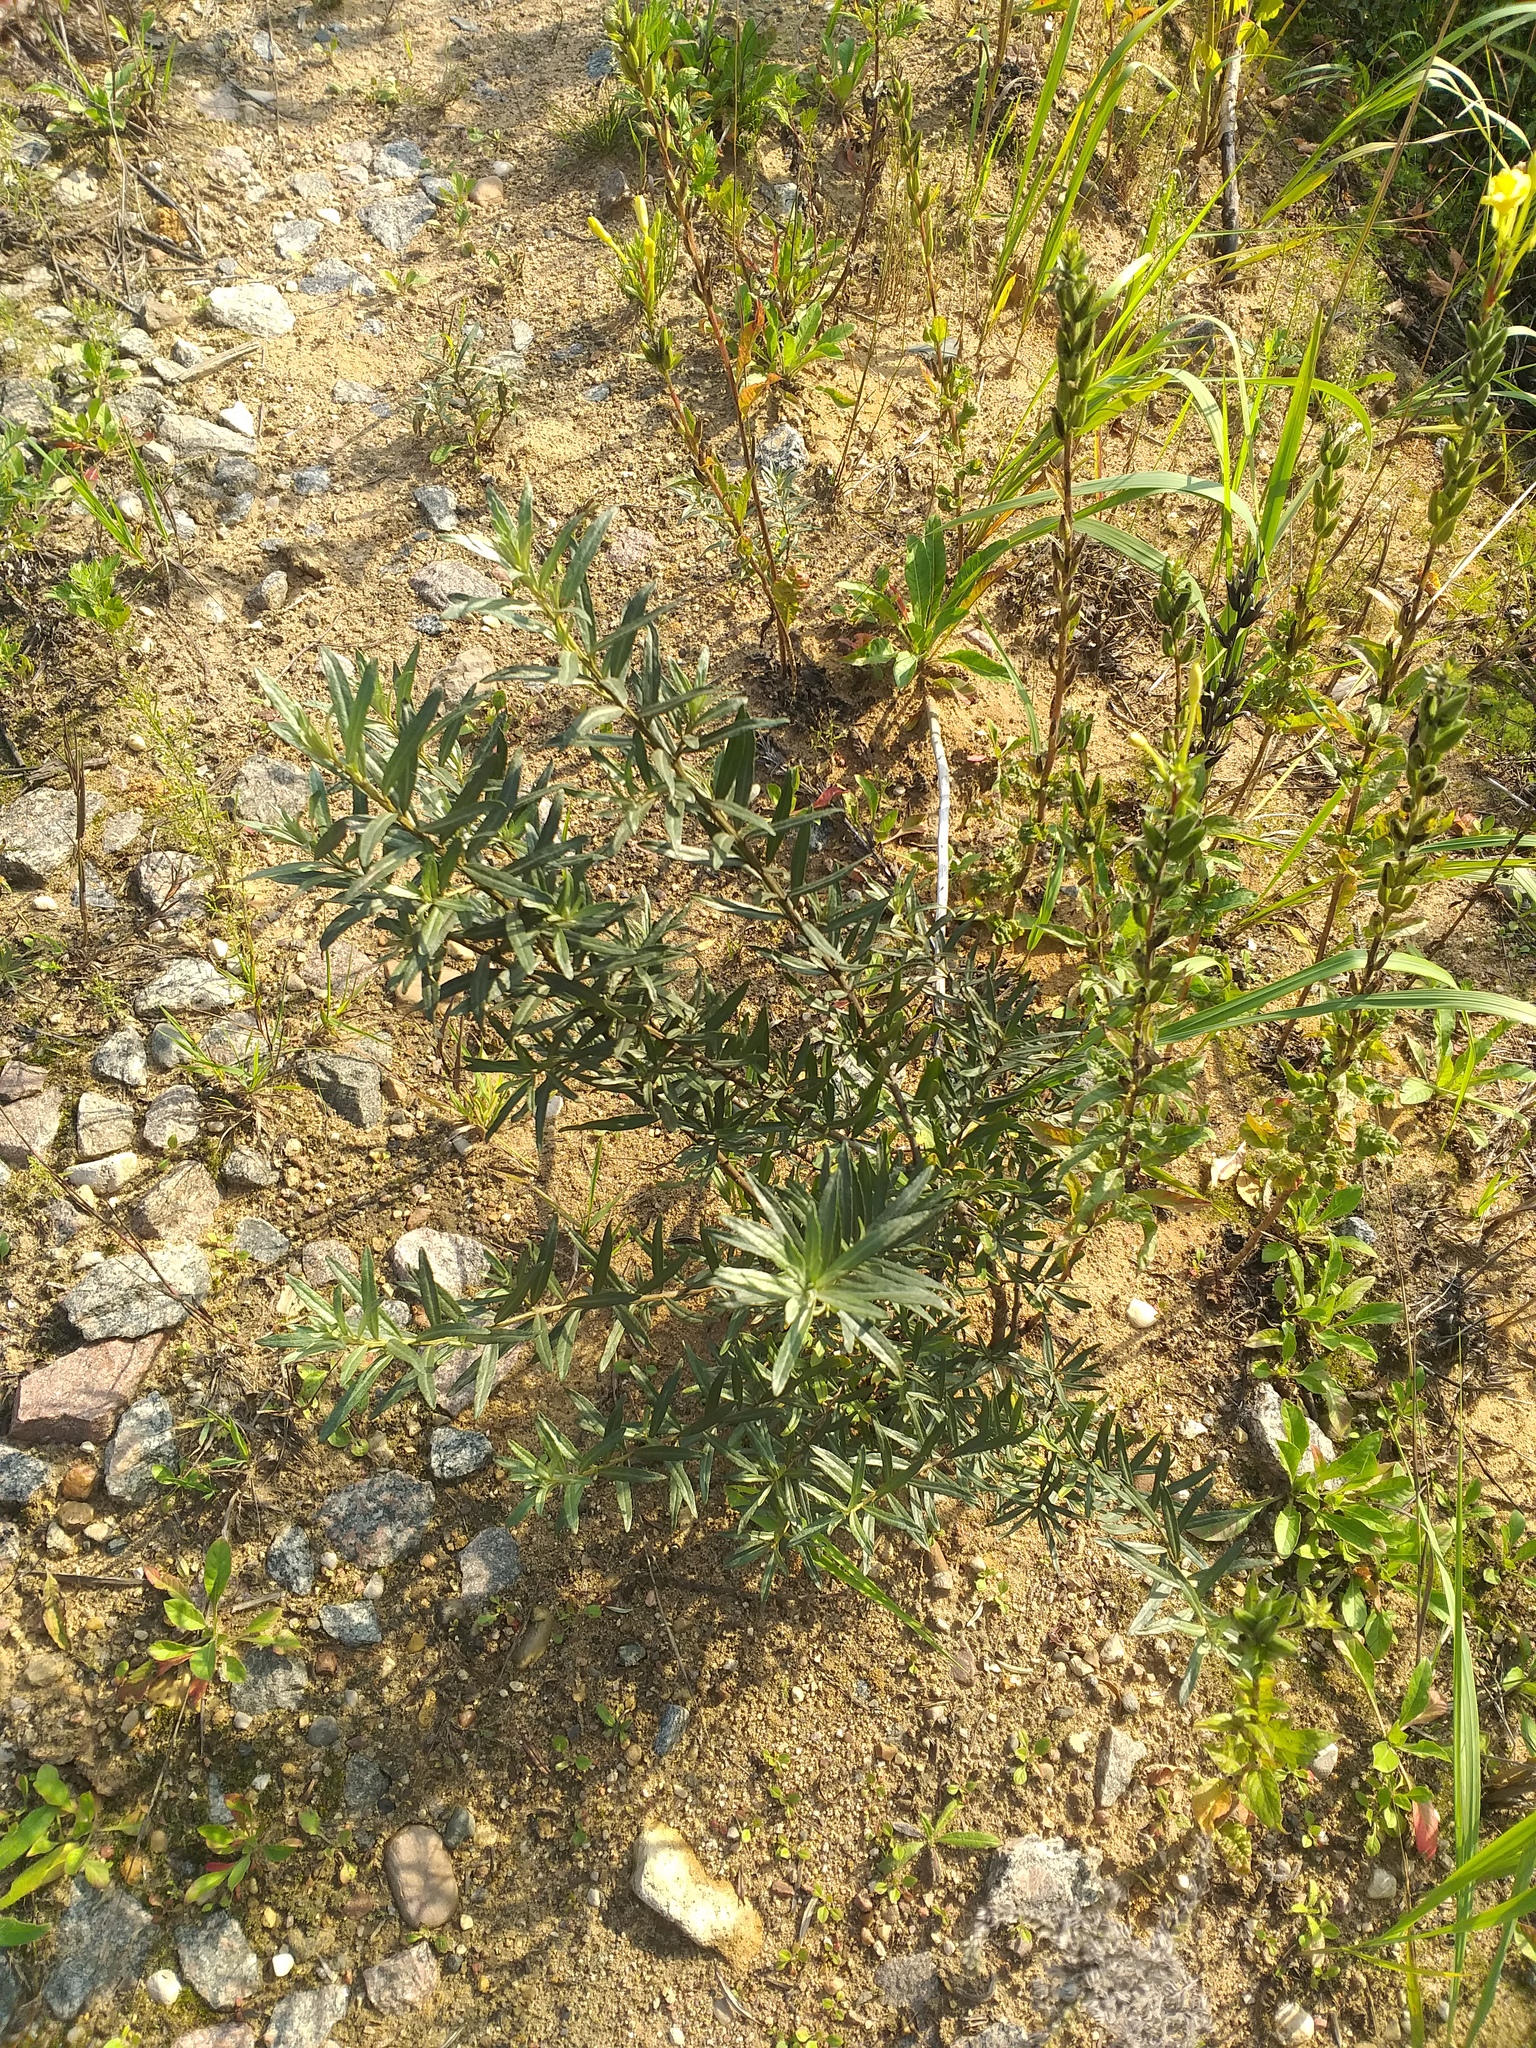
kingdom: Plantae
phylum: Tracheophyta
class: Magnoliopsida
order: Rosales
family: Elaeagnaceae
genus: Hippophae
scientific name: Hippophae rhamnoides
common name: Sea-buckthorn
